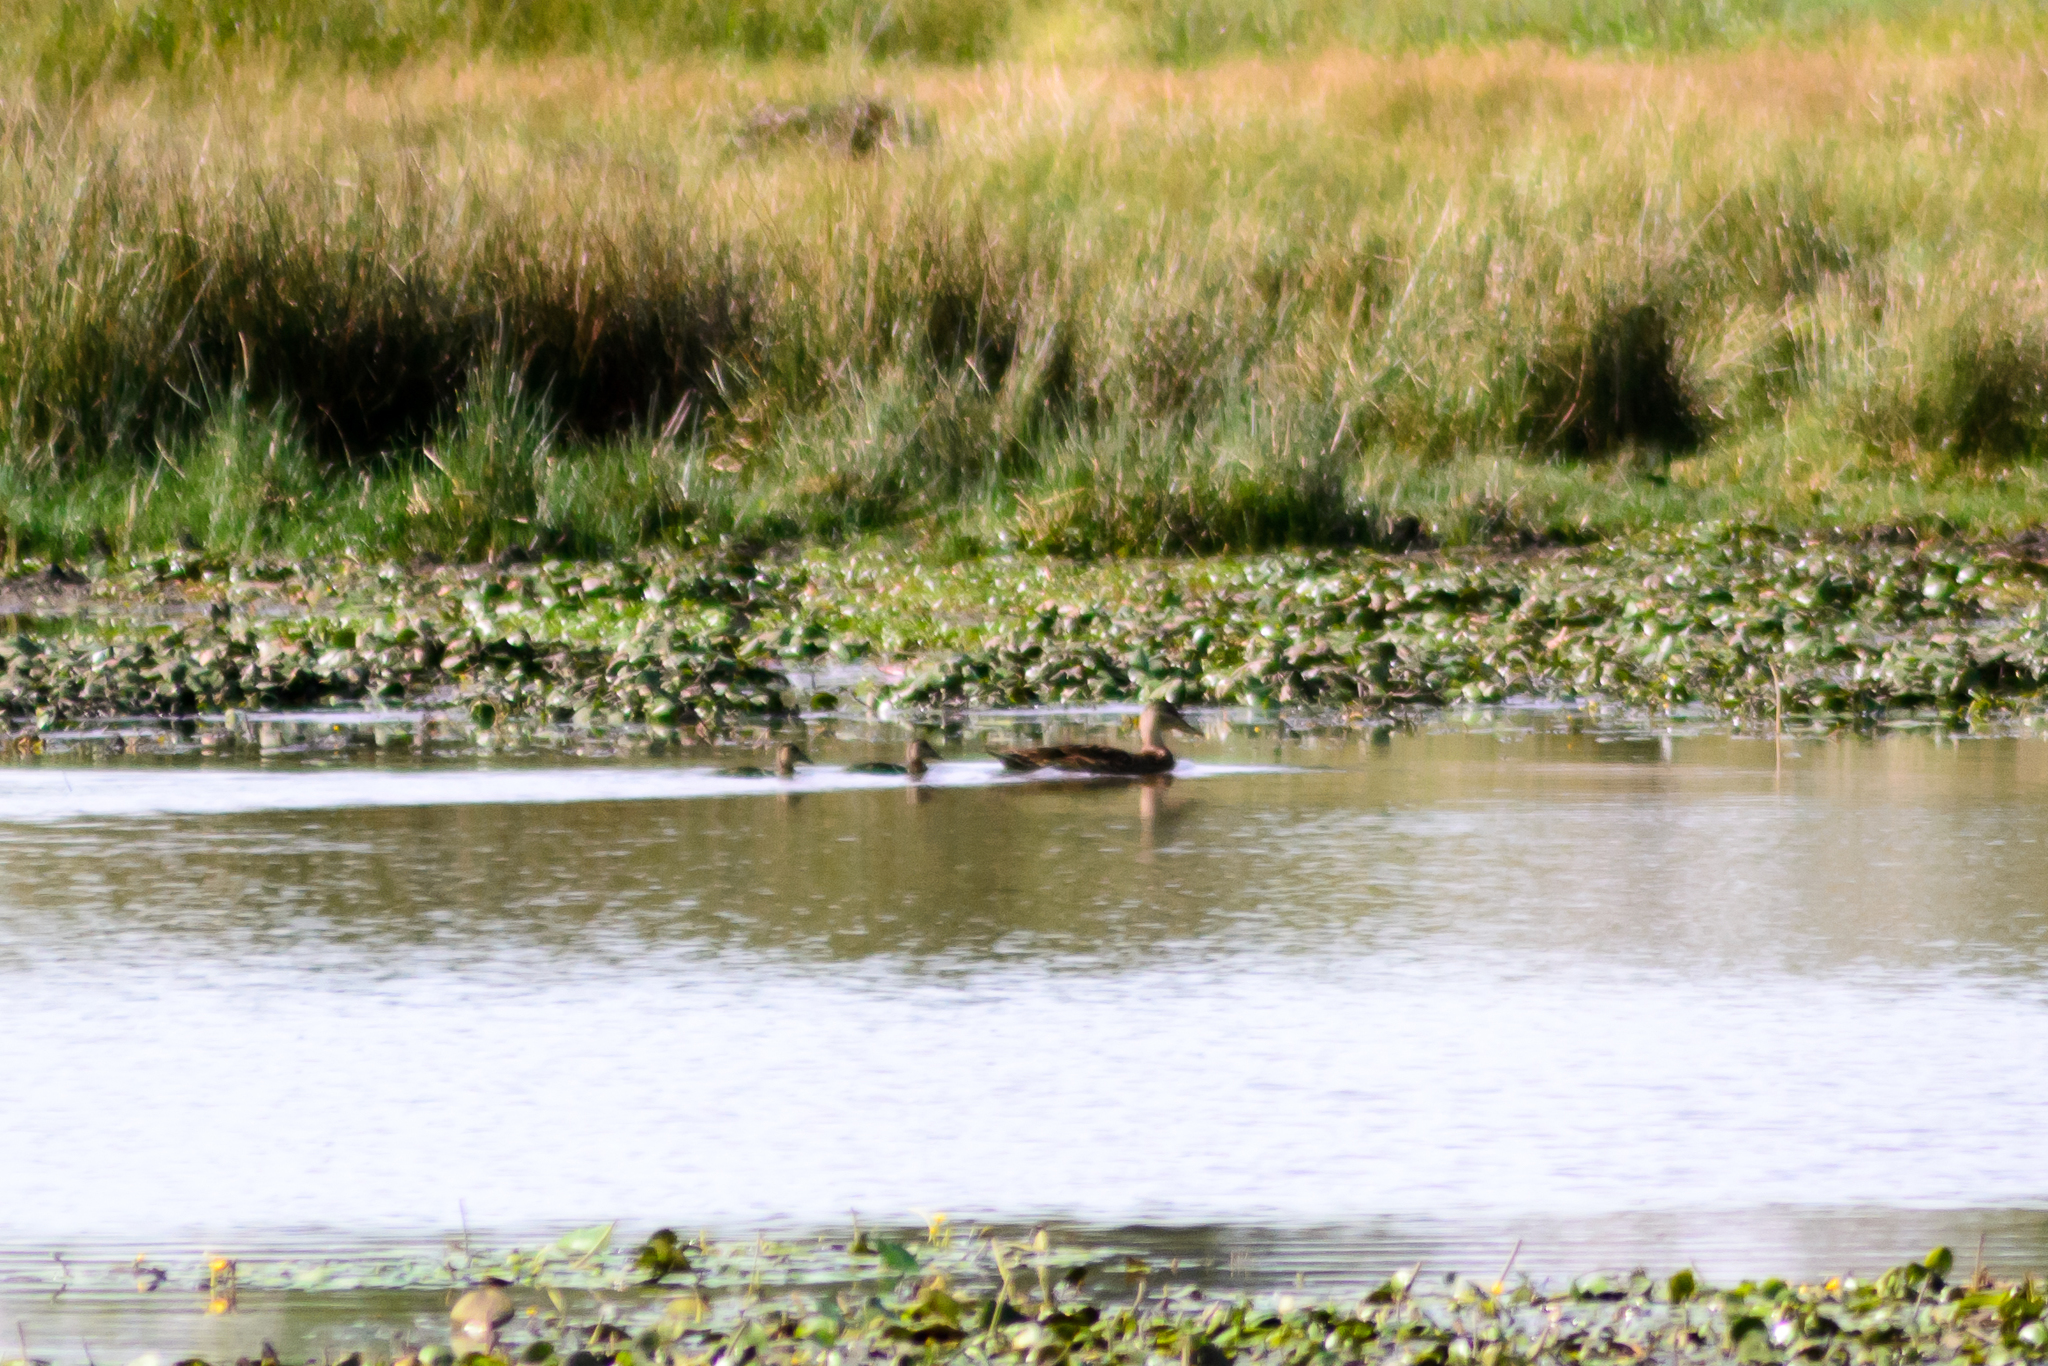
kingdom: Animalia
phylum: Chordata
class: Aves
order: Anseriformes
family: Anatidae
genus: Anas
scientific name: Anas diazi
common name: Mexican duck
